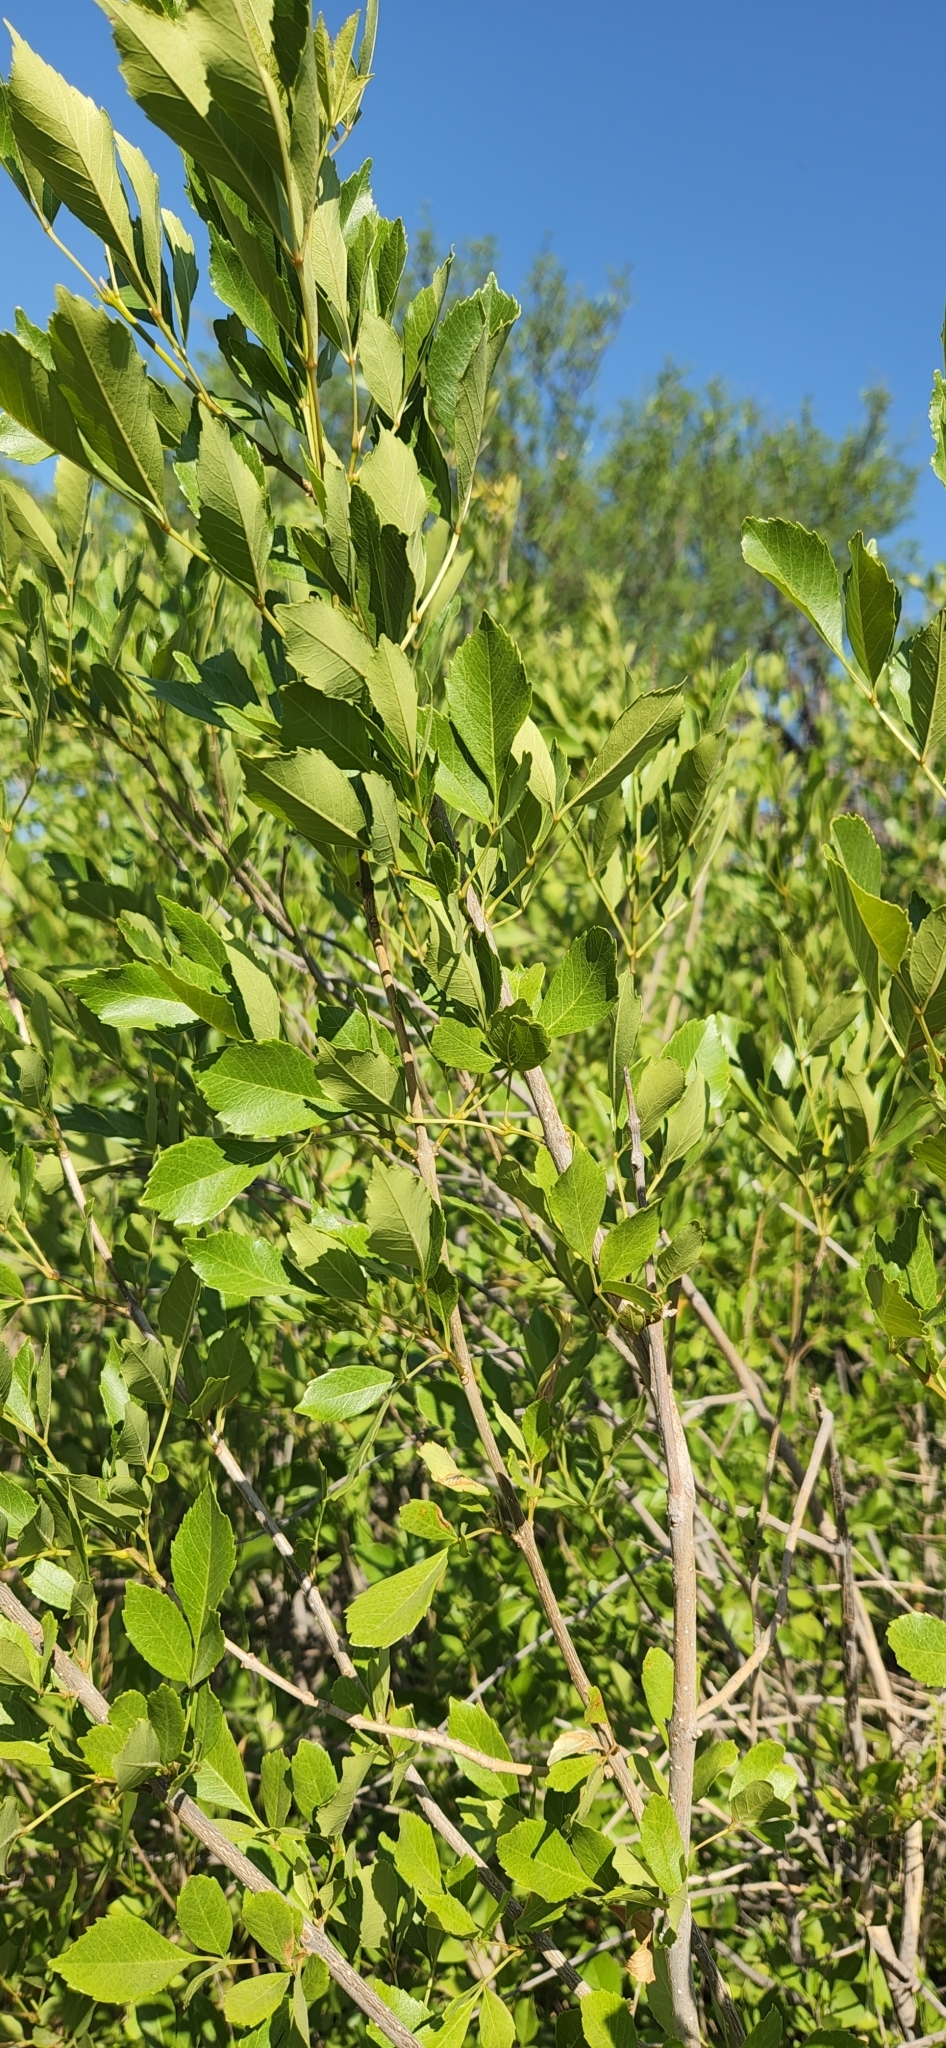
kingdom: Plantae
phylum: Tracheophyta
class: Magnoliopsida
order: Lamiales
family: Oleaceae
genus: Fraxinus
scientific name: Fraxinus velutina
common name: Arizon ash
